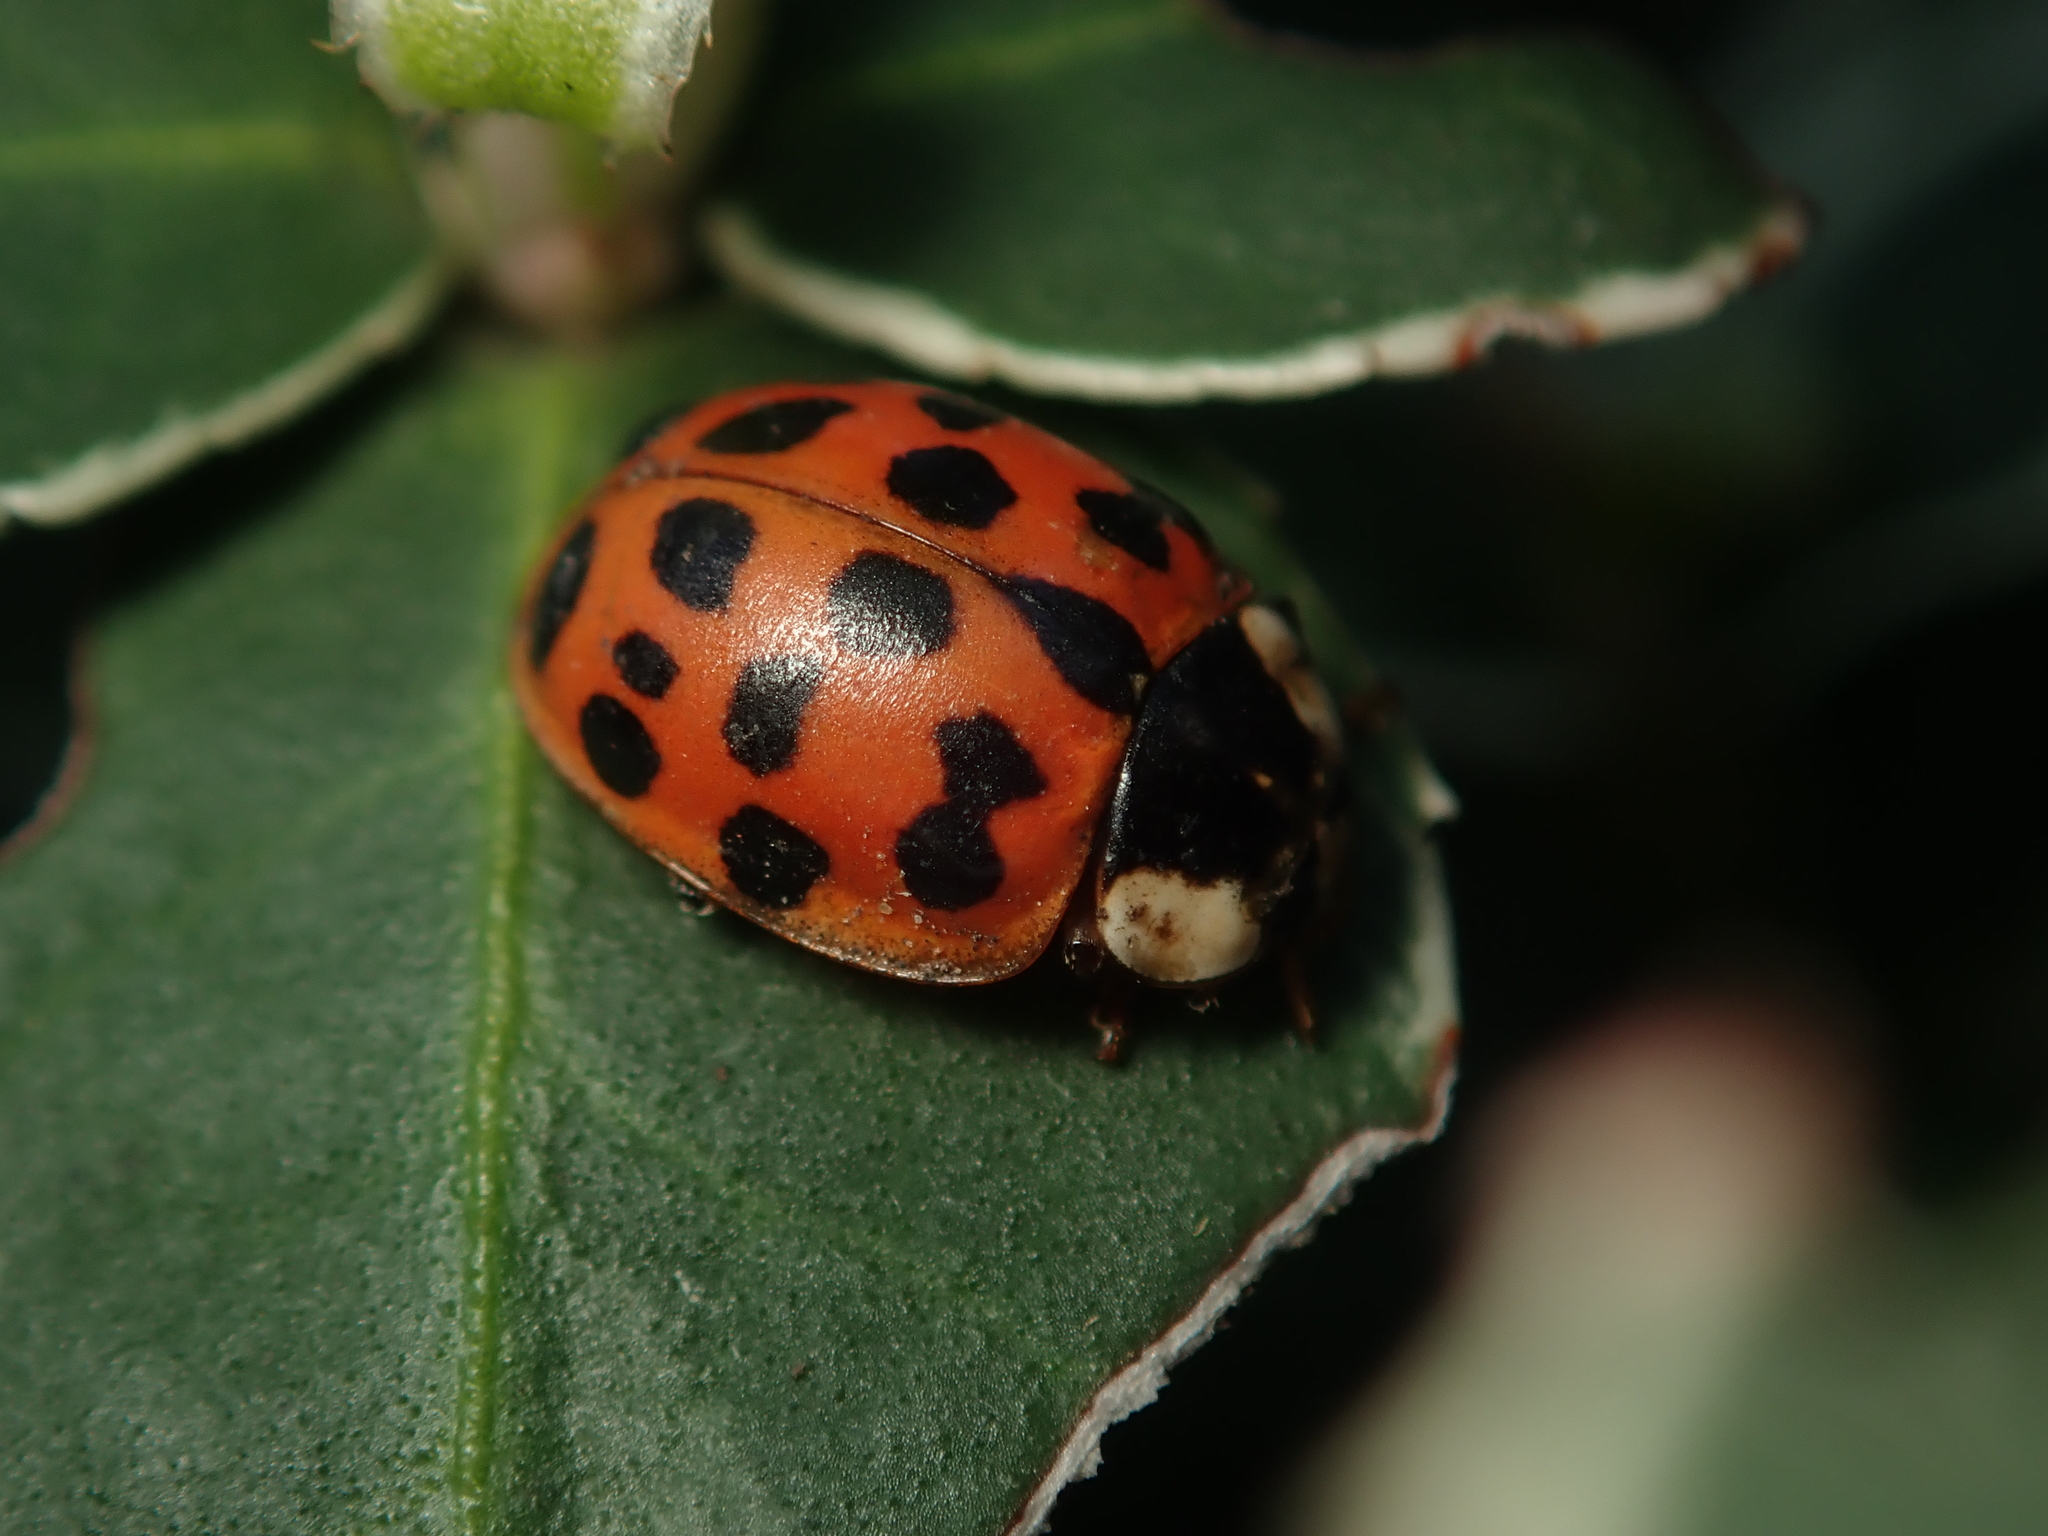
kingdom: Animalia
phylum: Arthropoda
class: Insecta
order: Coleoptera
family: Coccinellidae
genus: Harmonia
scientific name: Harmonia axyridis
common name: Harlequin ladybird
